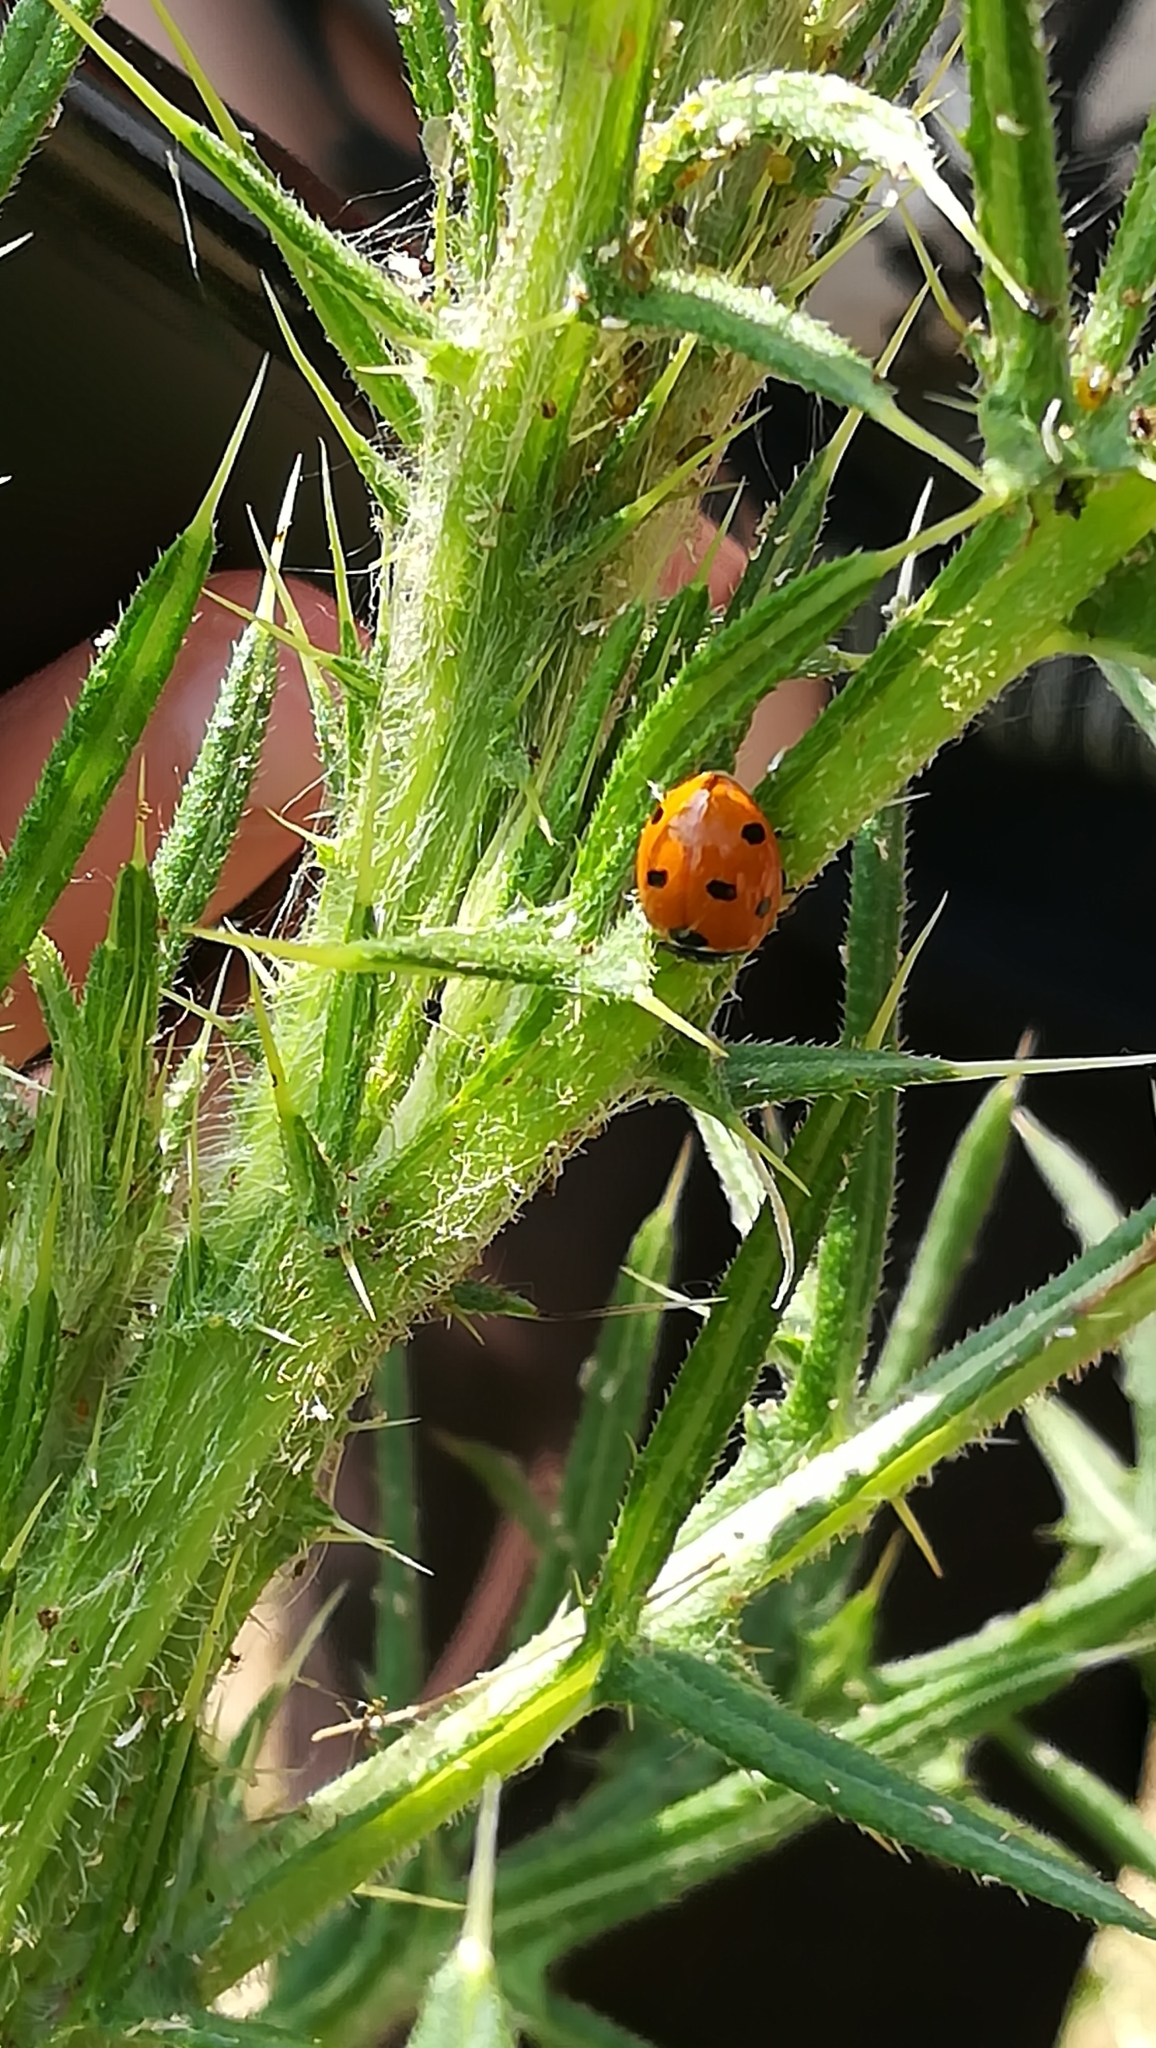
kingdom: Animalia
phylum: Arthropoda
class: Insecta
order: Coleoptera
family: Coccinellidae
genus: Coccinella
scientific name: Coccinella septempunctata
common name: Sevenspotted lady beetle
